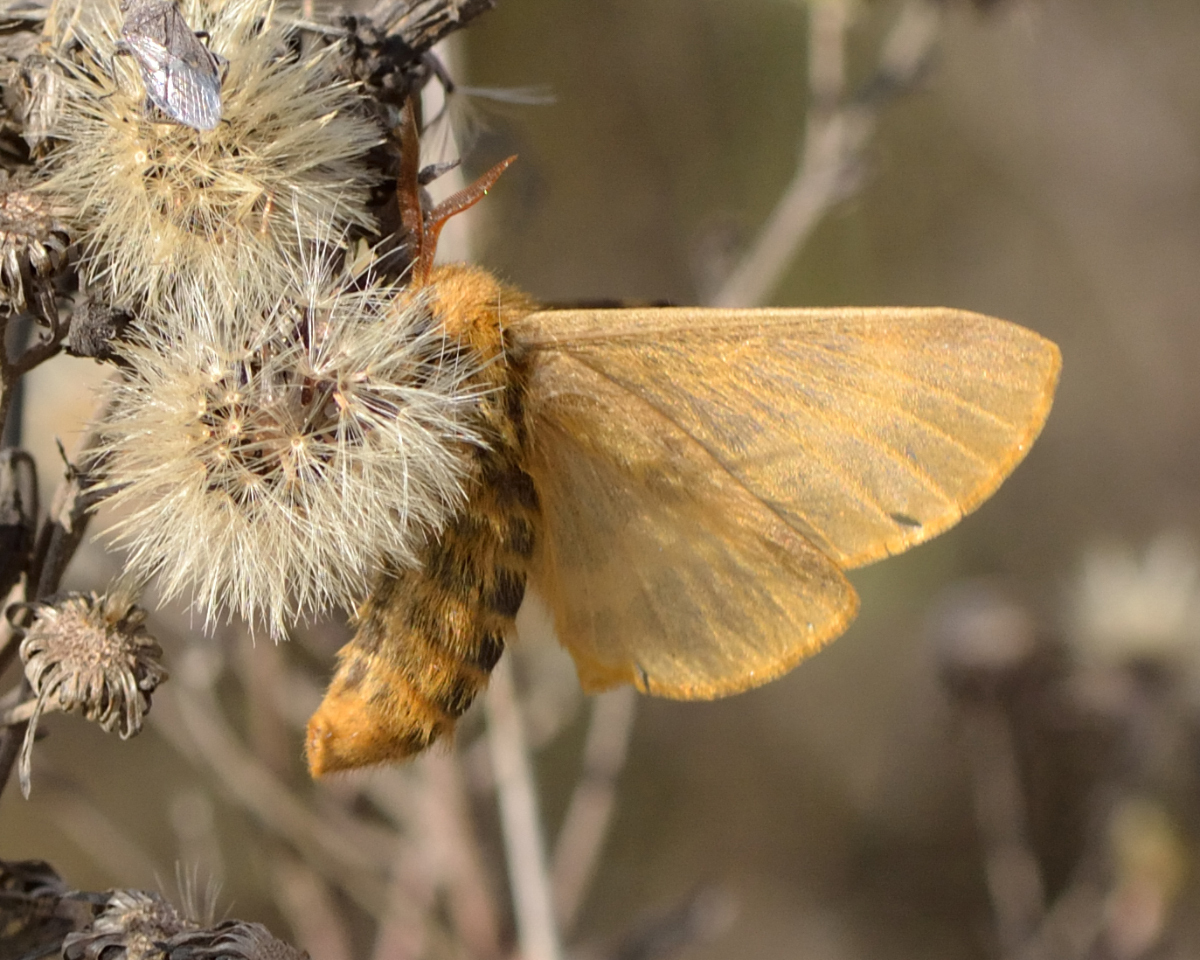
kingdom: Animalia
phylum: Arthropoda
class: Insecta
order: Lepidoptera
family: Brahmaeidae
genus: Lemonia
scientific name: Lemonia dumi
